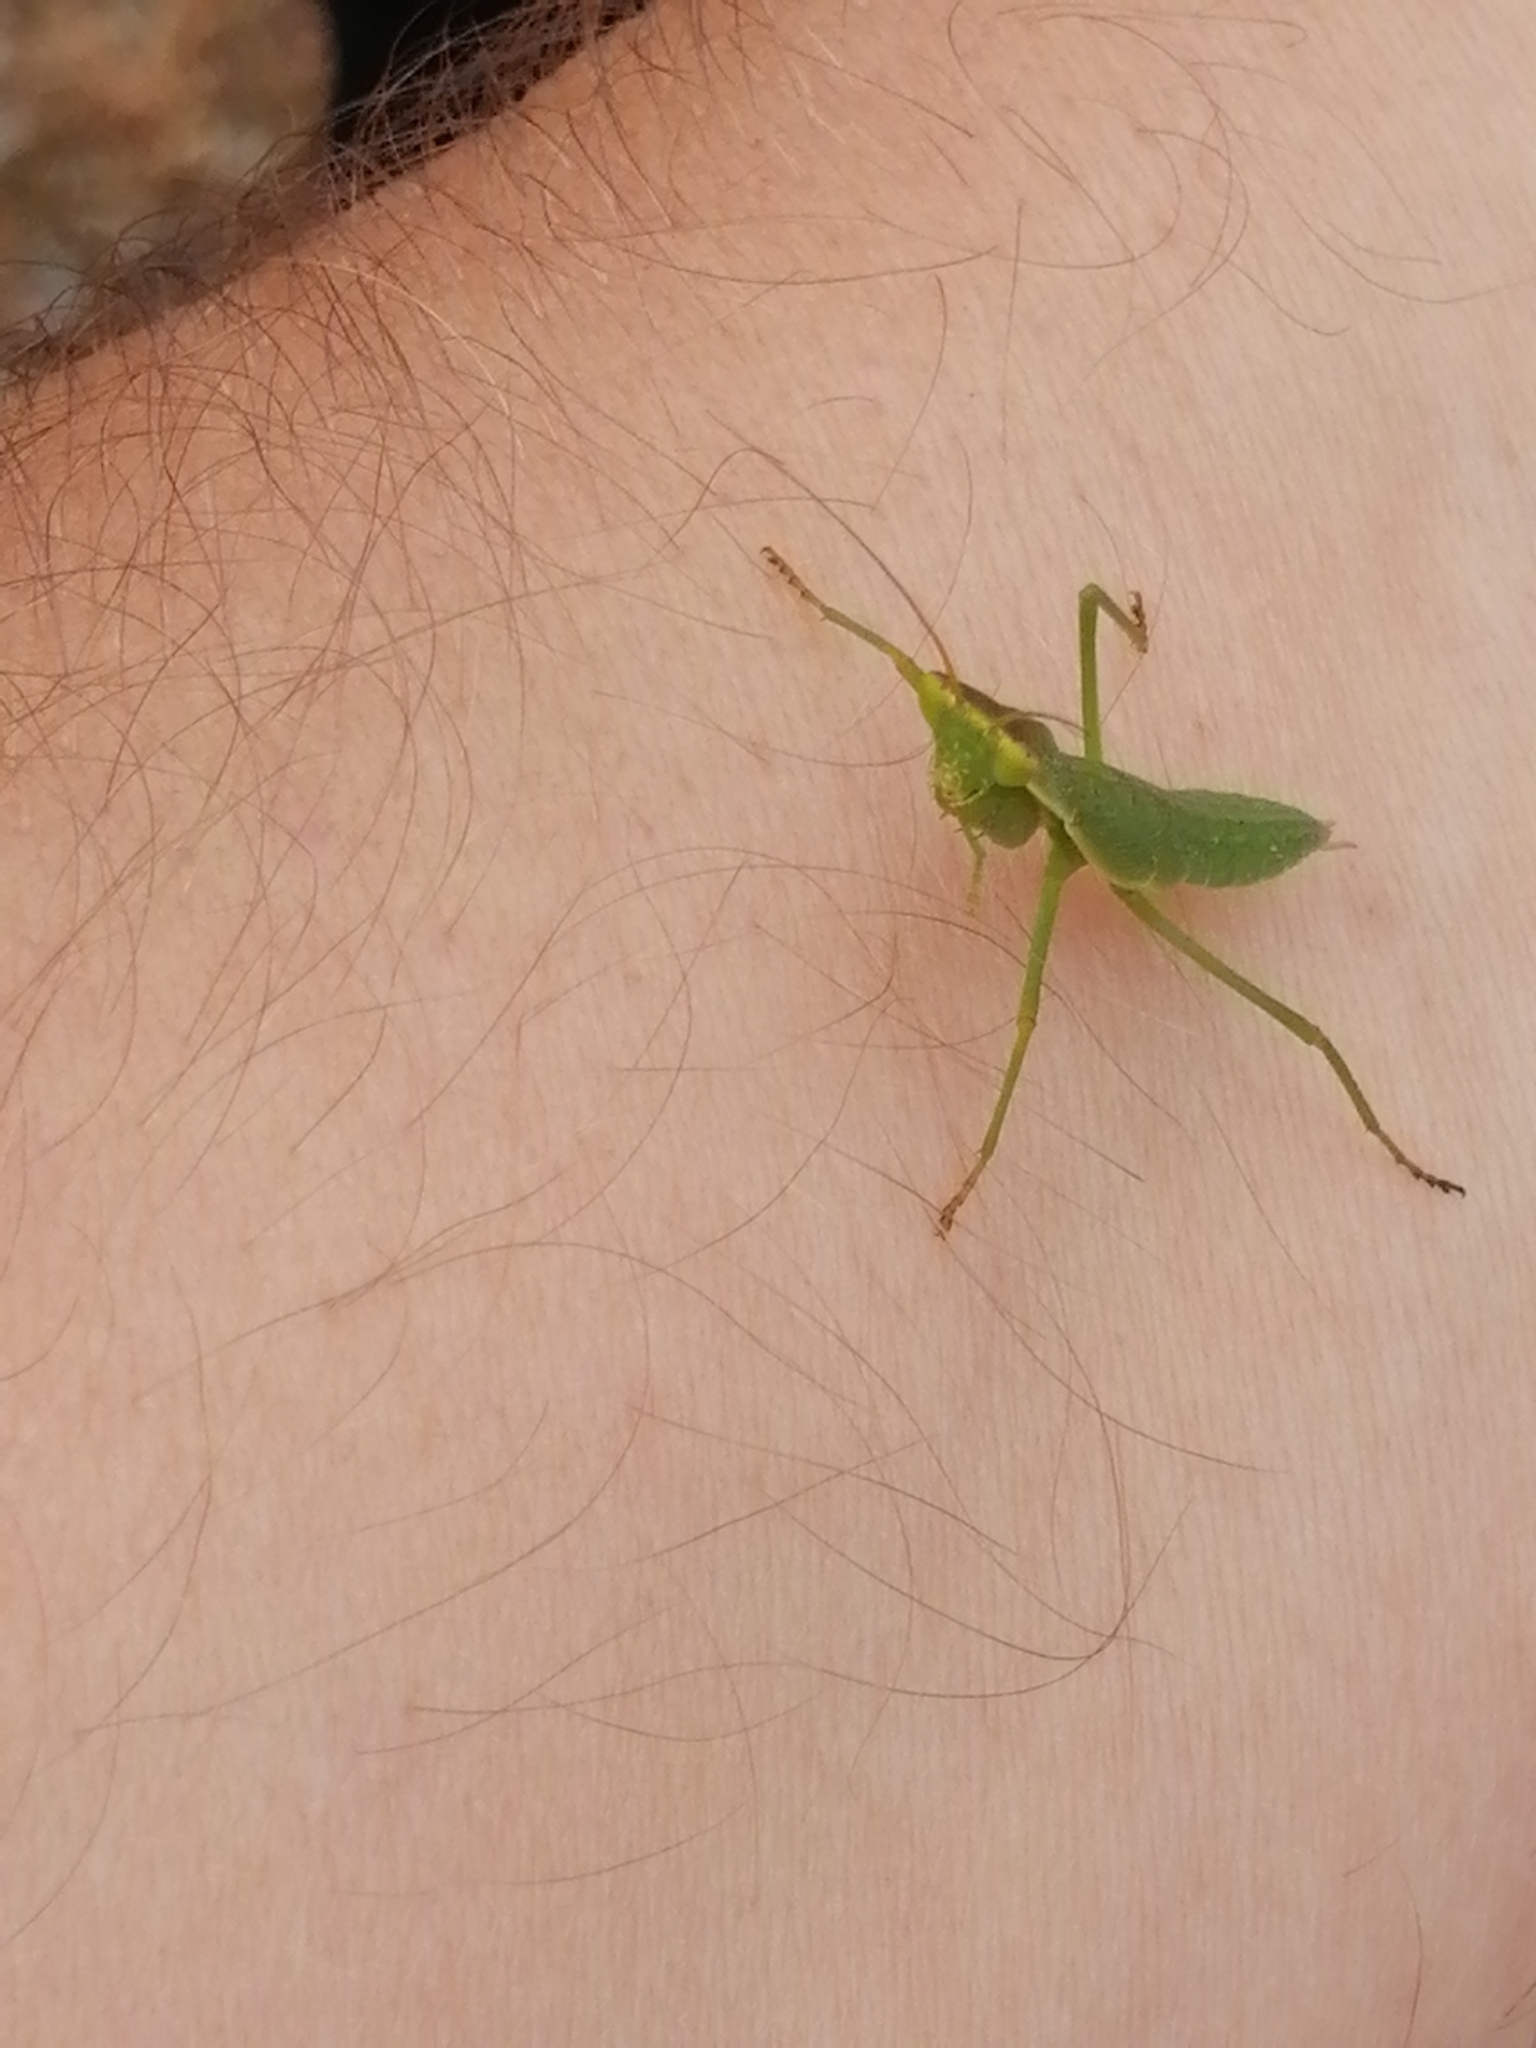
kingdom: Animalia
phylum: Arthropoda
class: Insecta
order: Mantodea
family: Mantidae
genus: Orthodera
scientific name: Orthodera novaezealandiae
